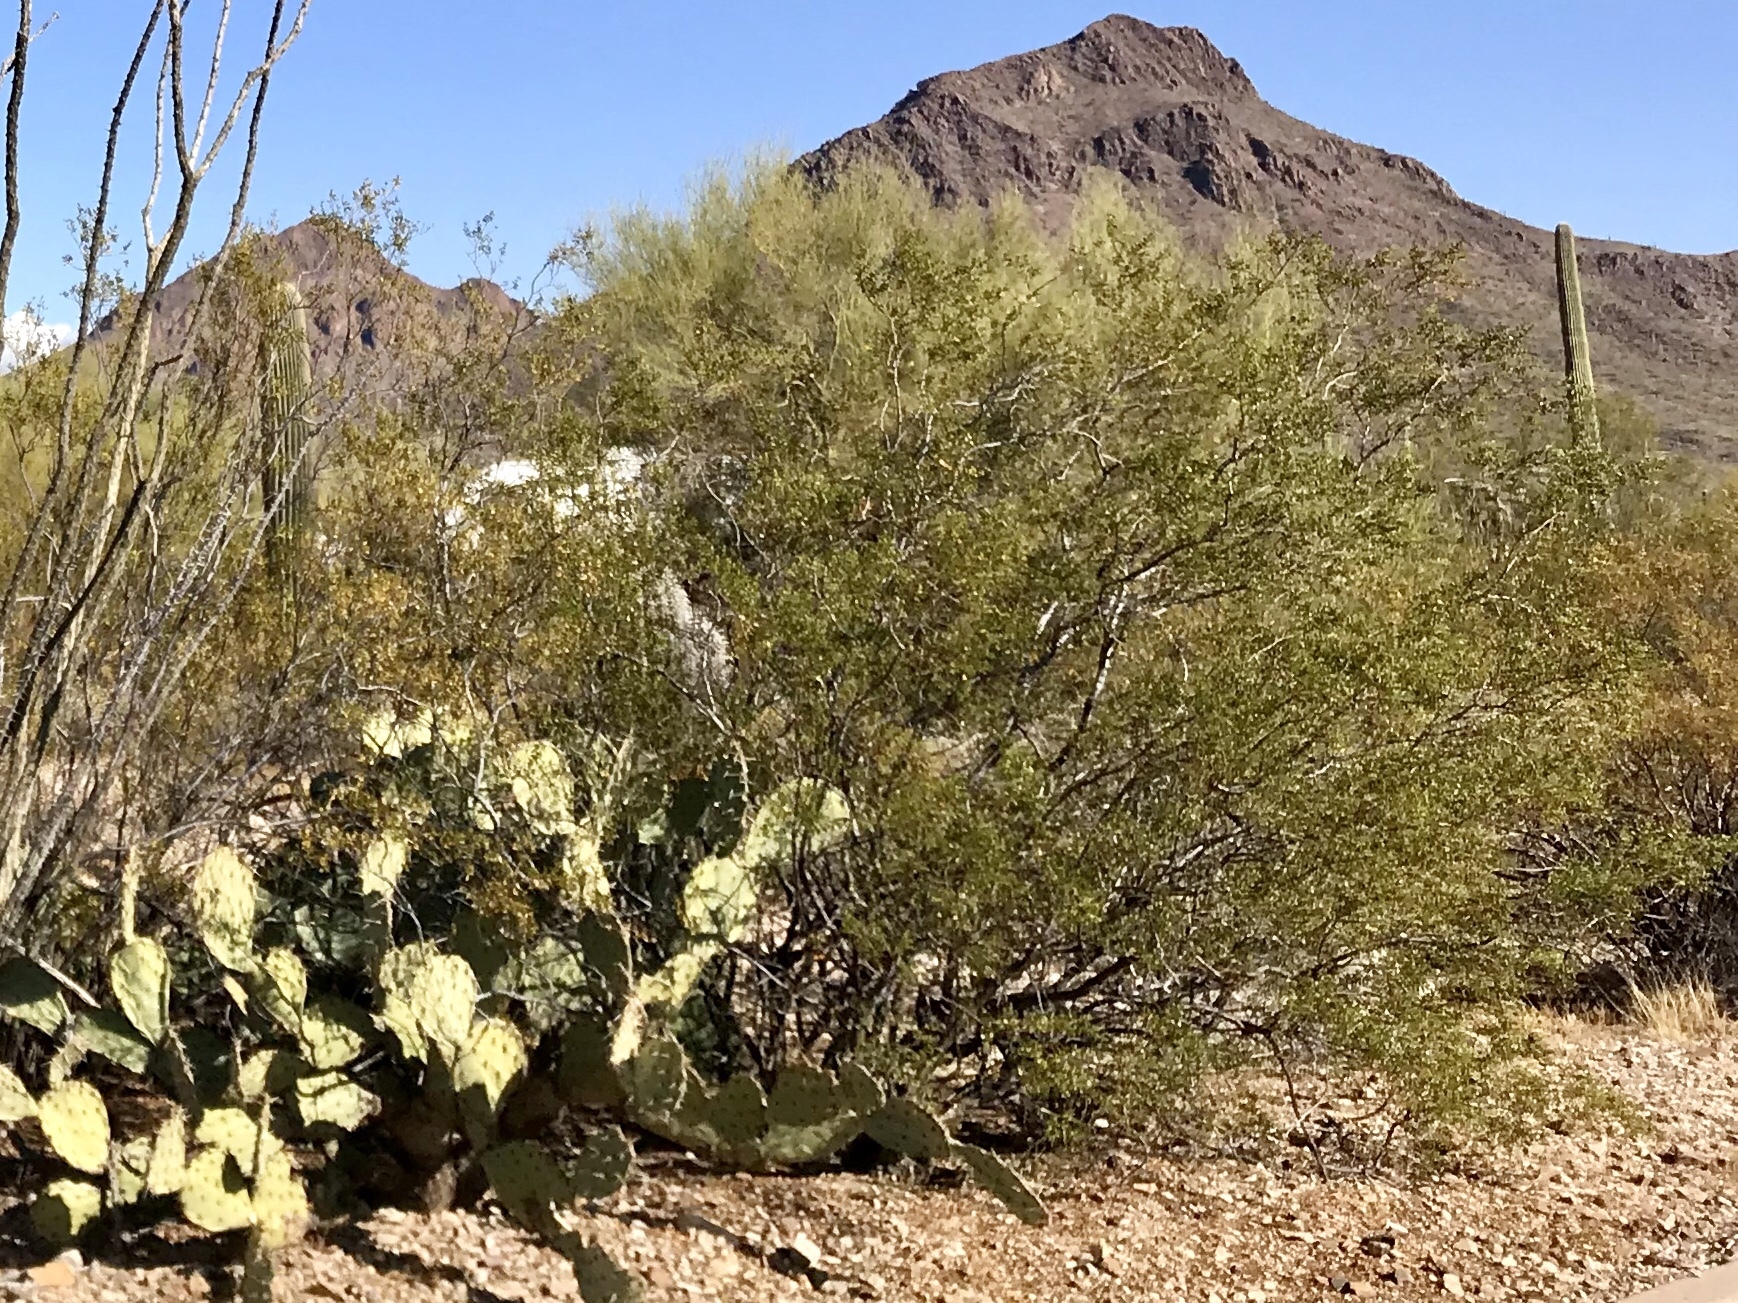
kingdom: Plantae
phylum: Tracheophyta
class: Magnoliopsida
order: Zygophyllales
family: Zygophyllaceae
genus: Larrea
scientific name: Larrea tridentata
